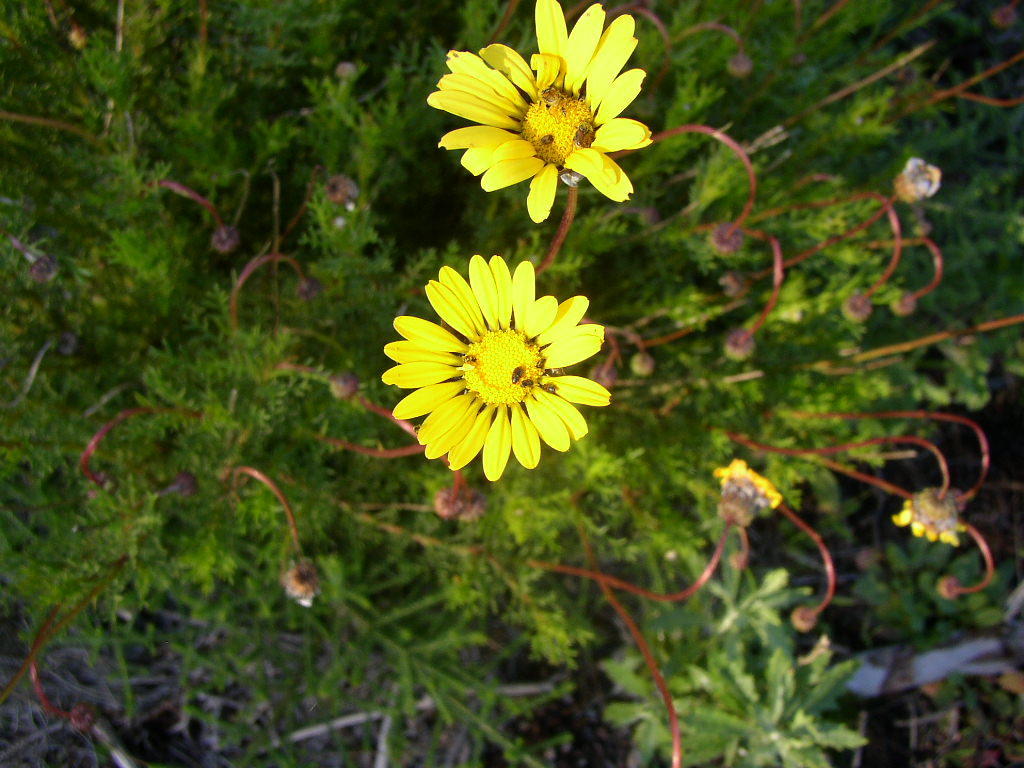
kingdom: Plantae
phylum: Tracheophyta
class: Magnoliopsida
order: Asterales
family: Asteraceae
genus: Ursinia
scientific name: Ursinia paleacea
